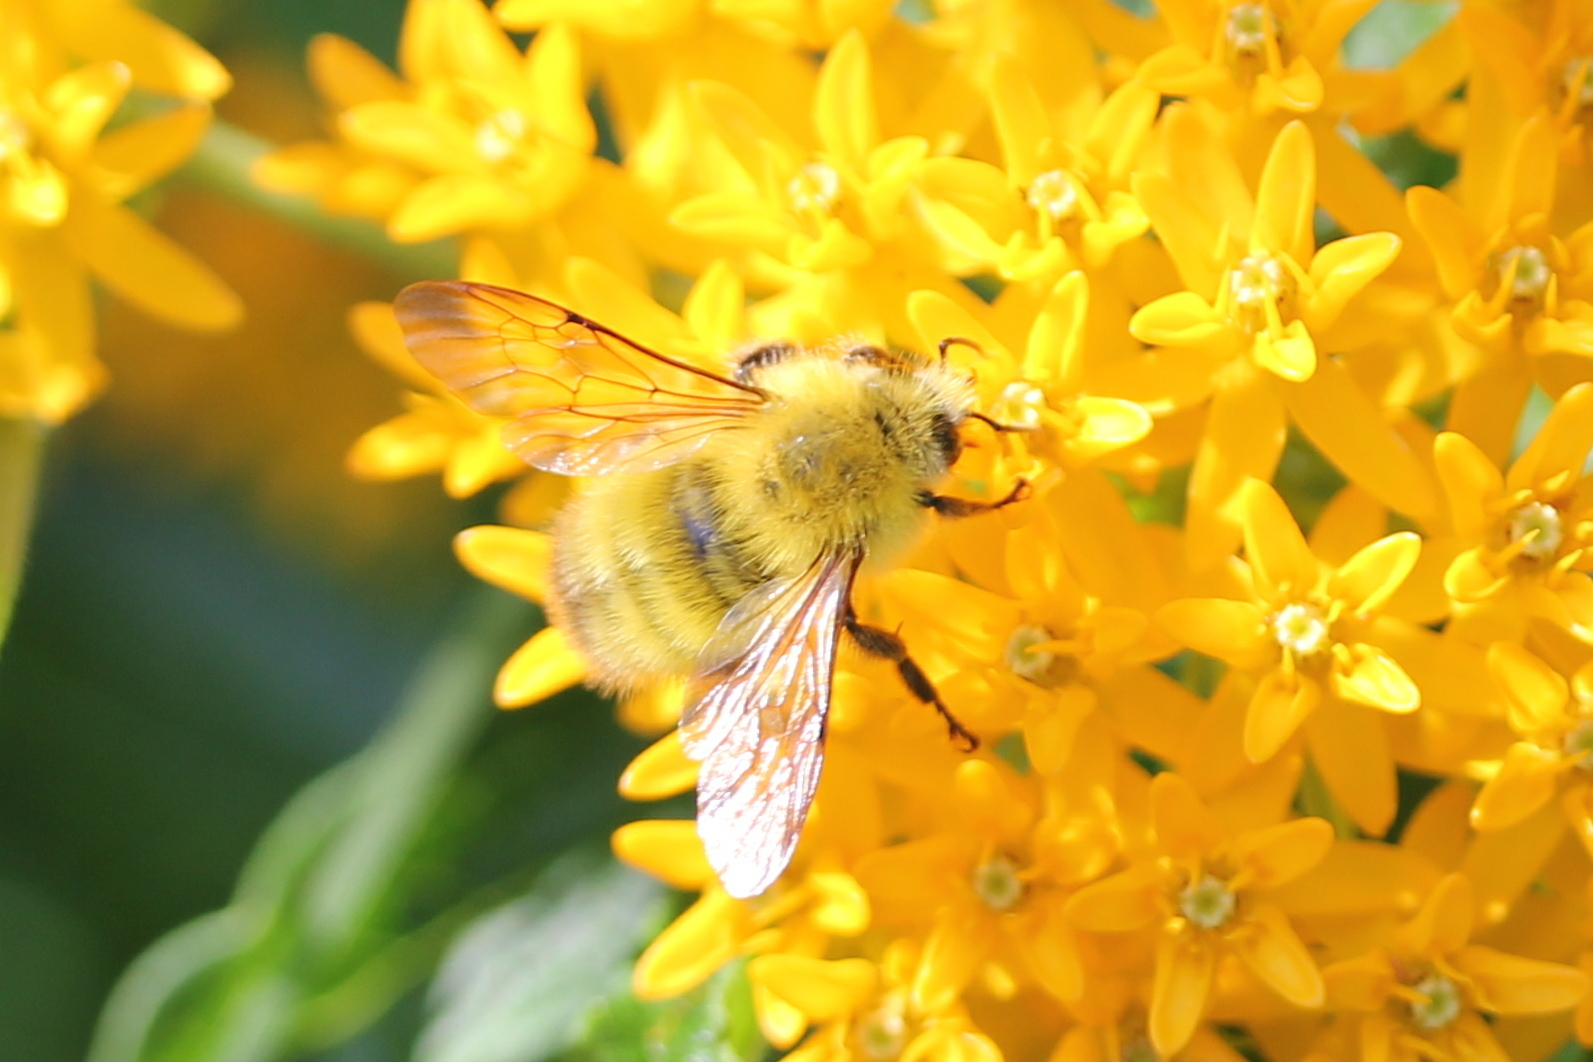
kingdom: Animalia
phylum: Arthropoda
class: Insecta
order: Hymenoptera
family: Apidae
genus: Bombus
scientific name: Bombus perplexus
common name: Confusing bumble bee
